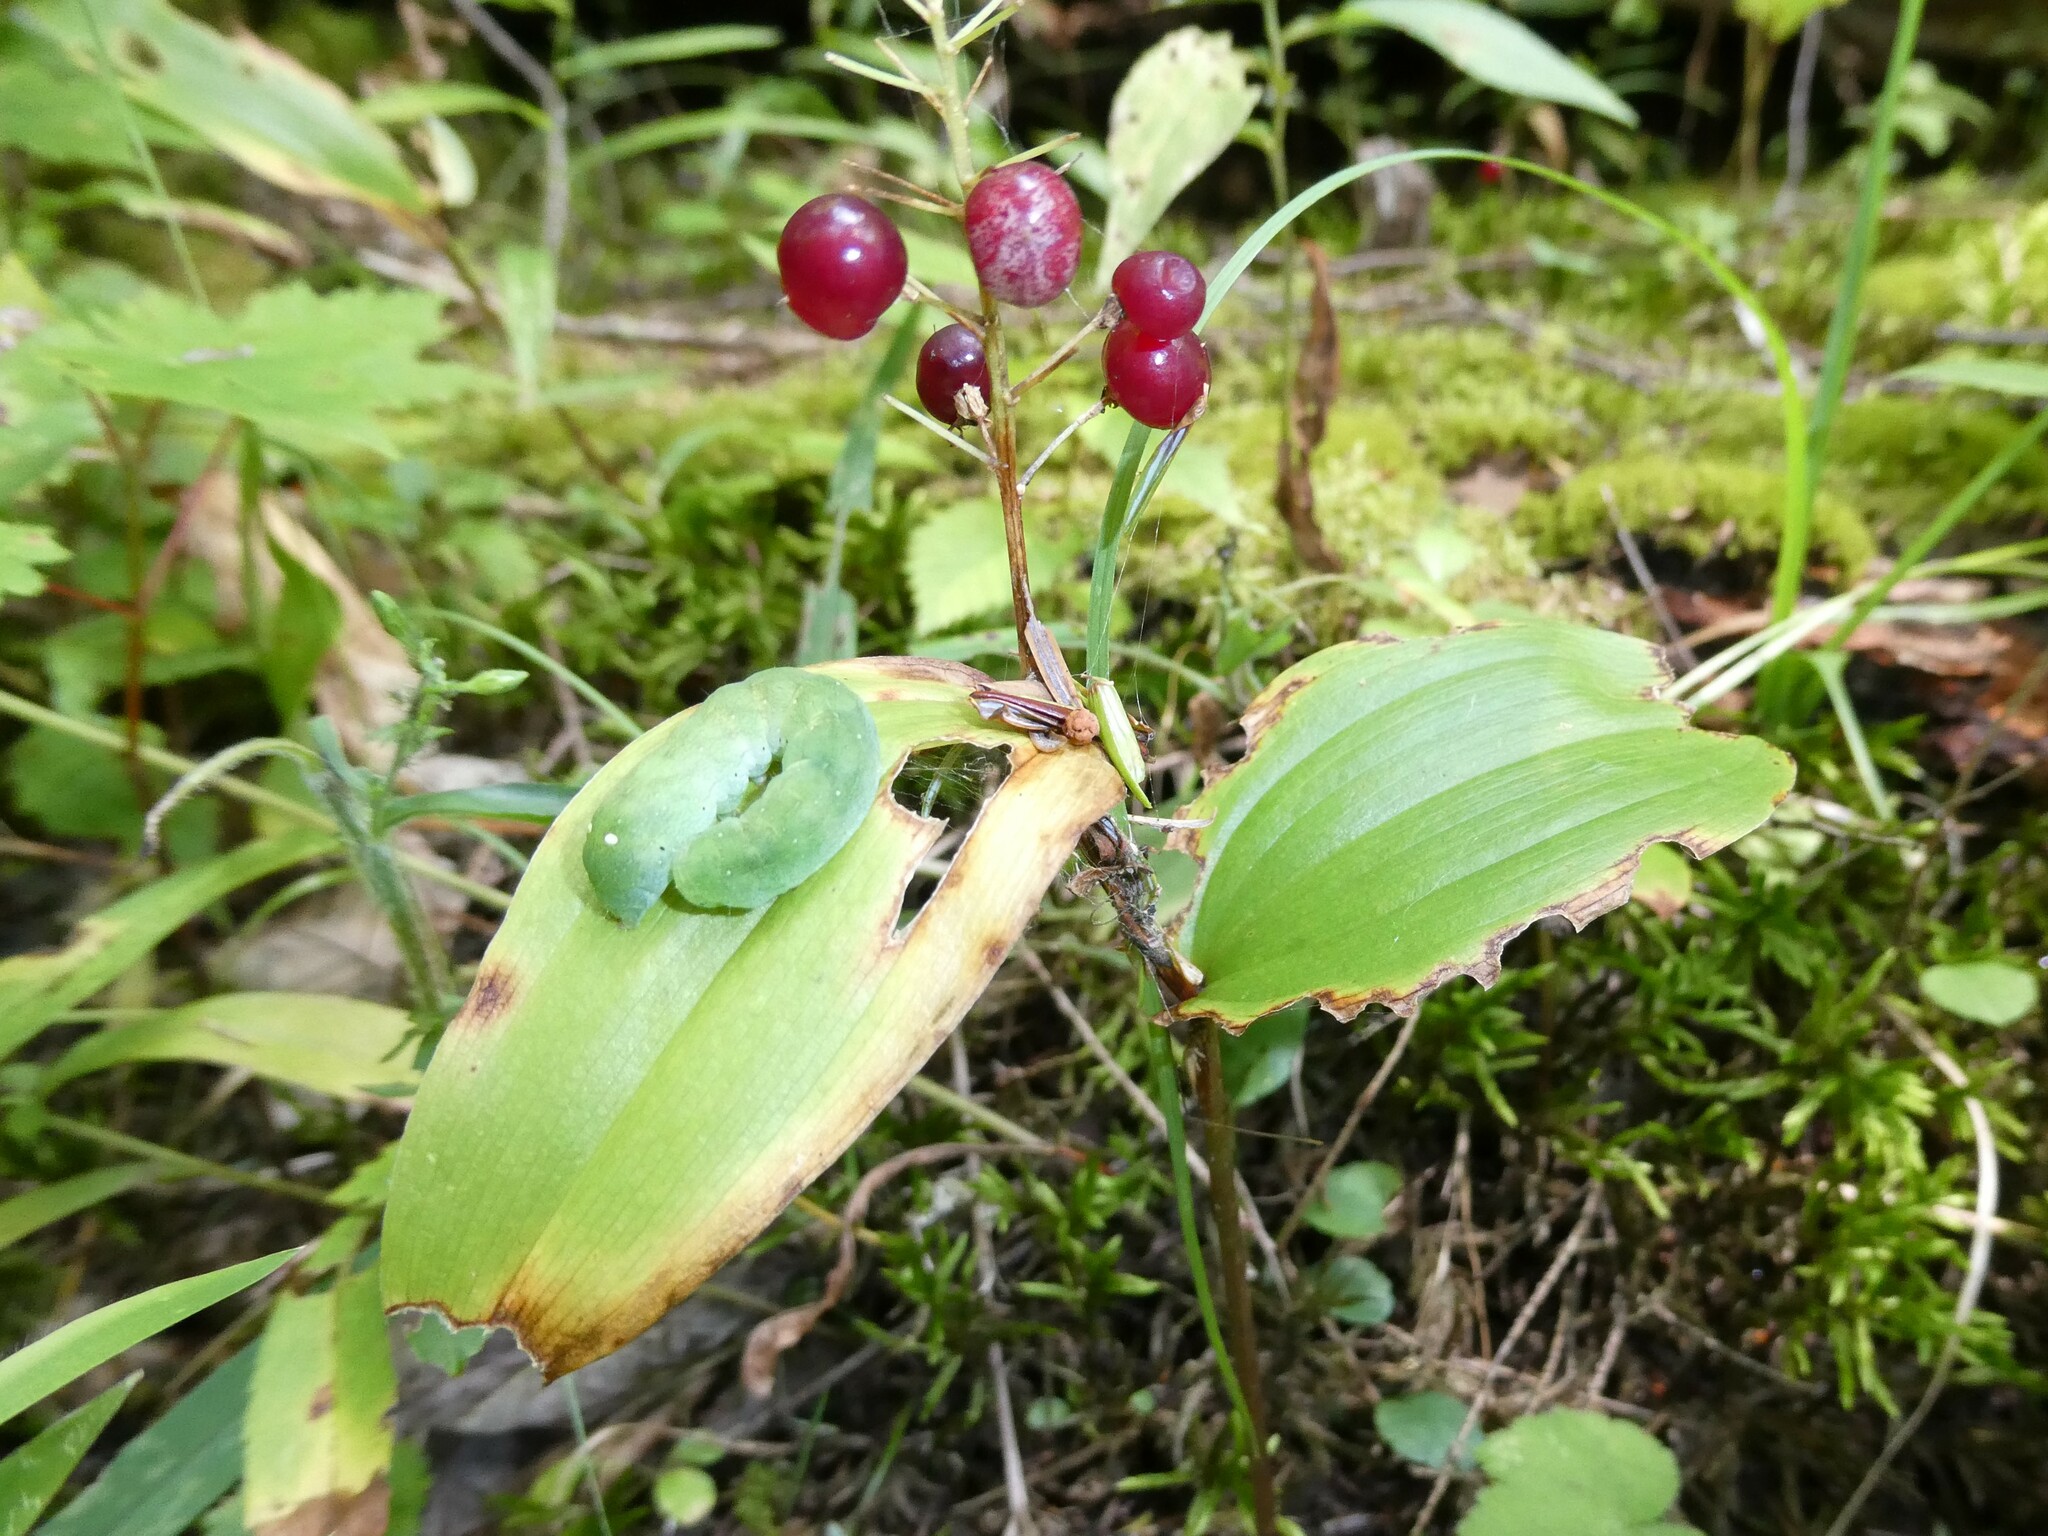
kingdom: Plantae
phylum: Tracheophyta
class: Liliopsida
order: Asparagales
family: Asparagaceae
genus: Maianthemum
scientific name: Maianthemum canadense
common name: False lily-of-the-valley
